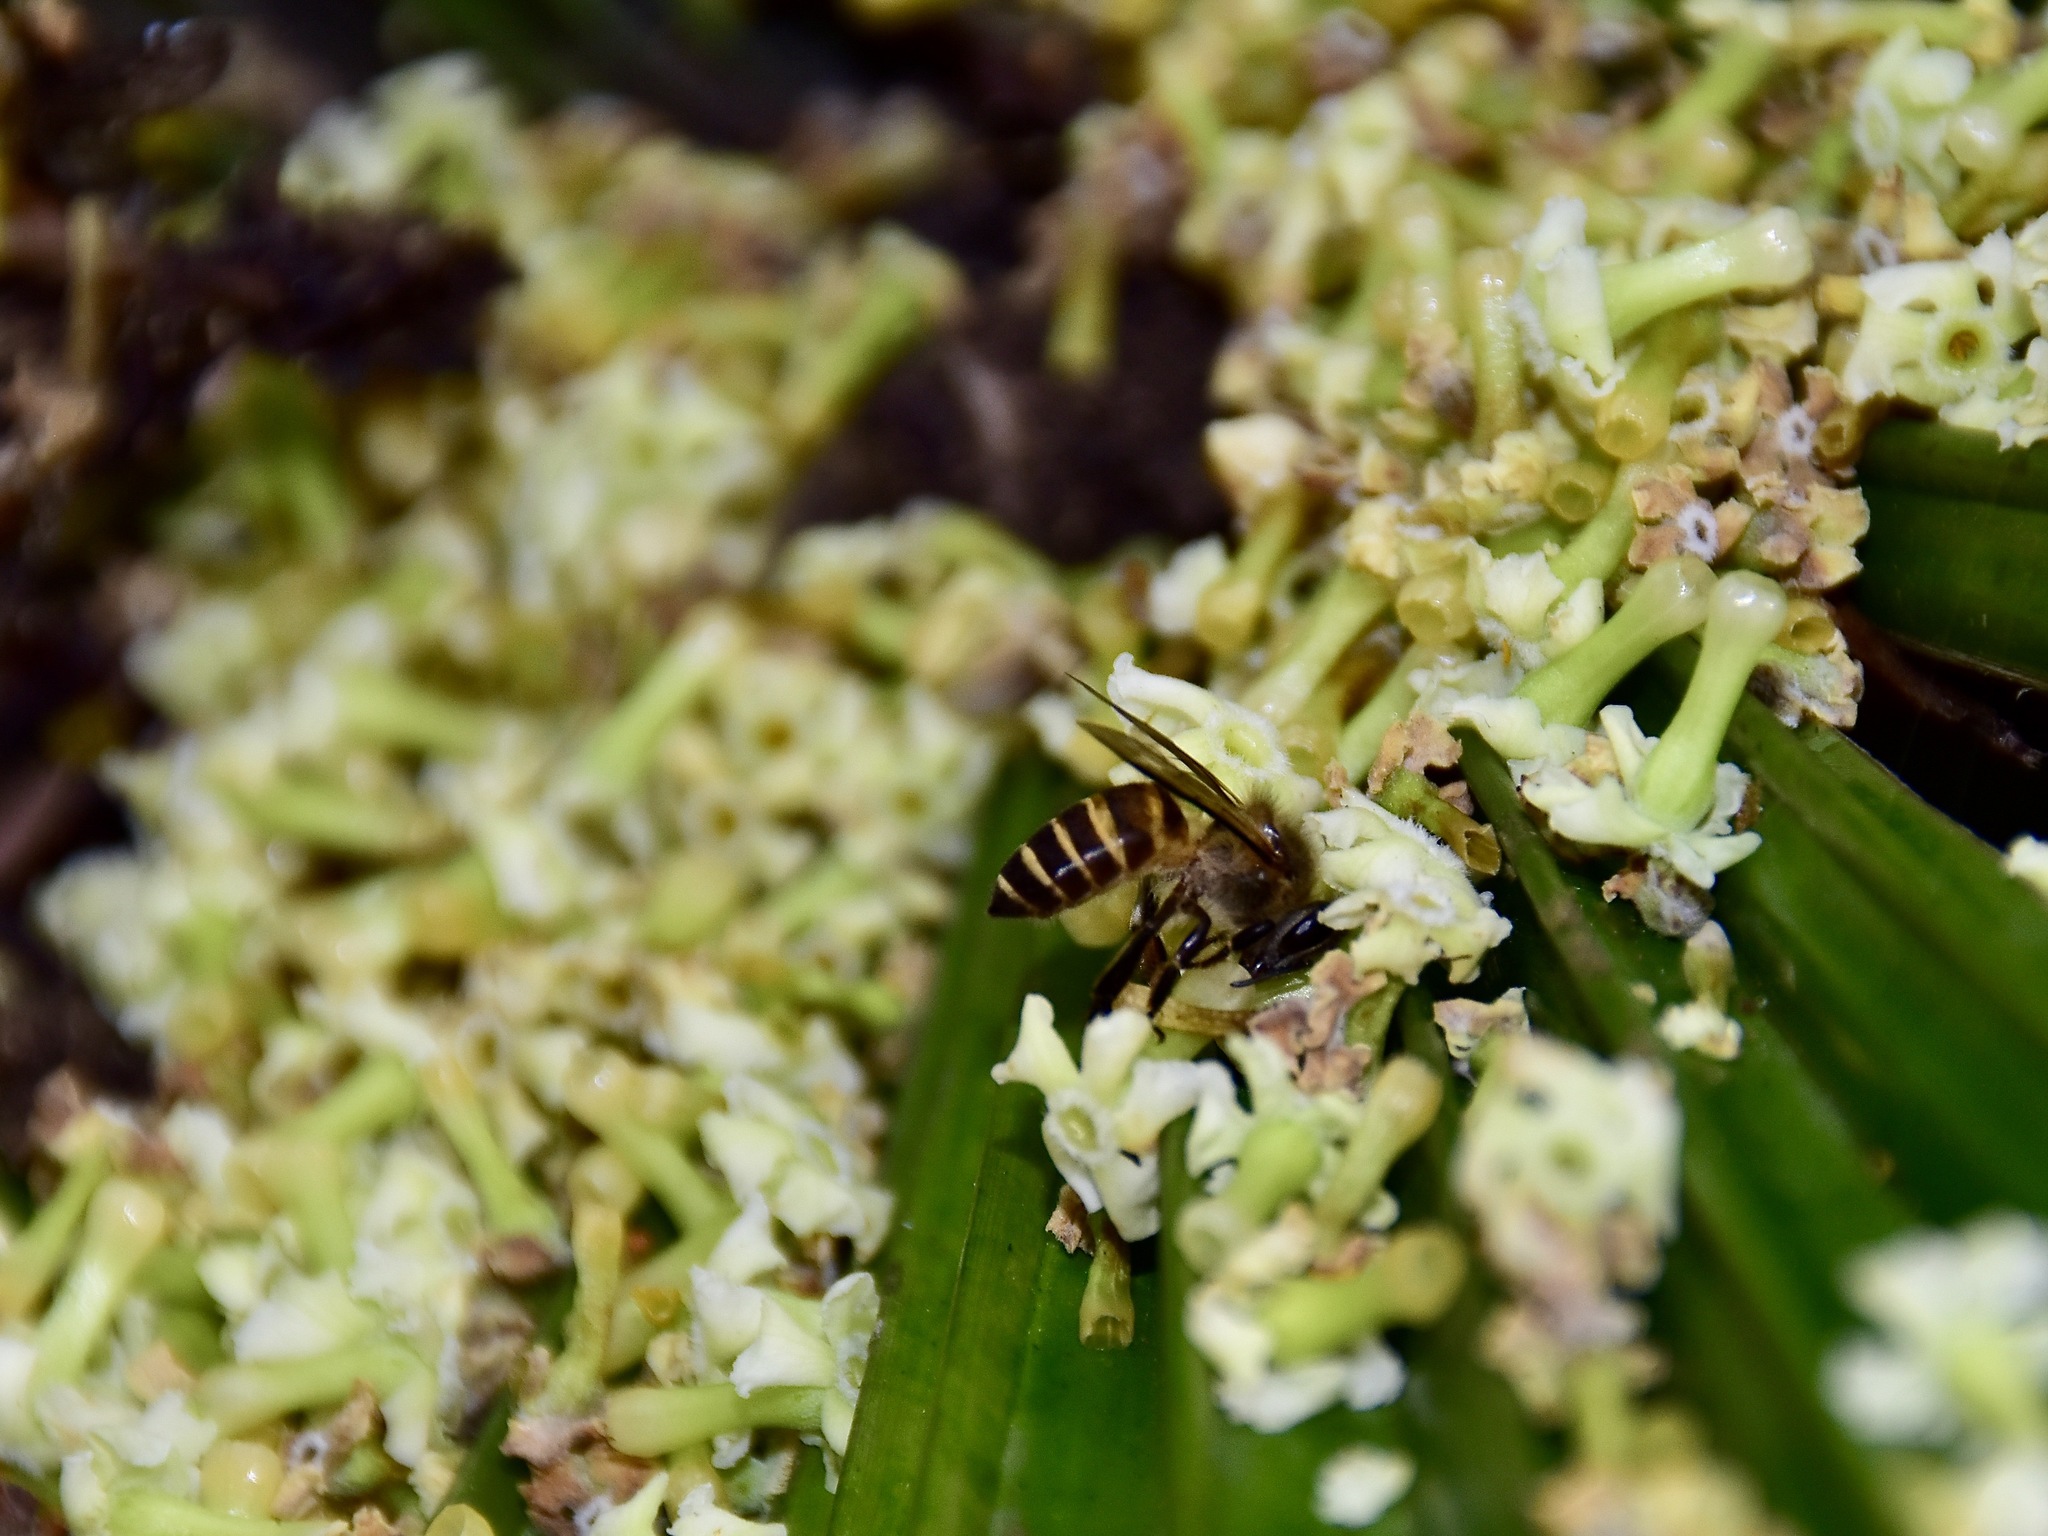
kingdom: Animalia
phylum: Arthropoda
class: Insecta
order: Hymenoptera
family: Apidae
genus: Apis
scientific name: Apis cerana
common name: Honey bee
